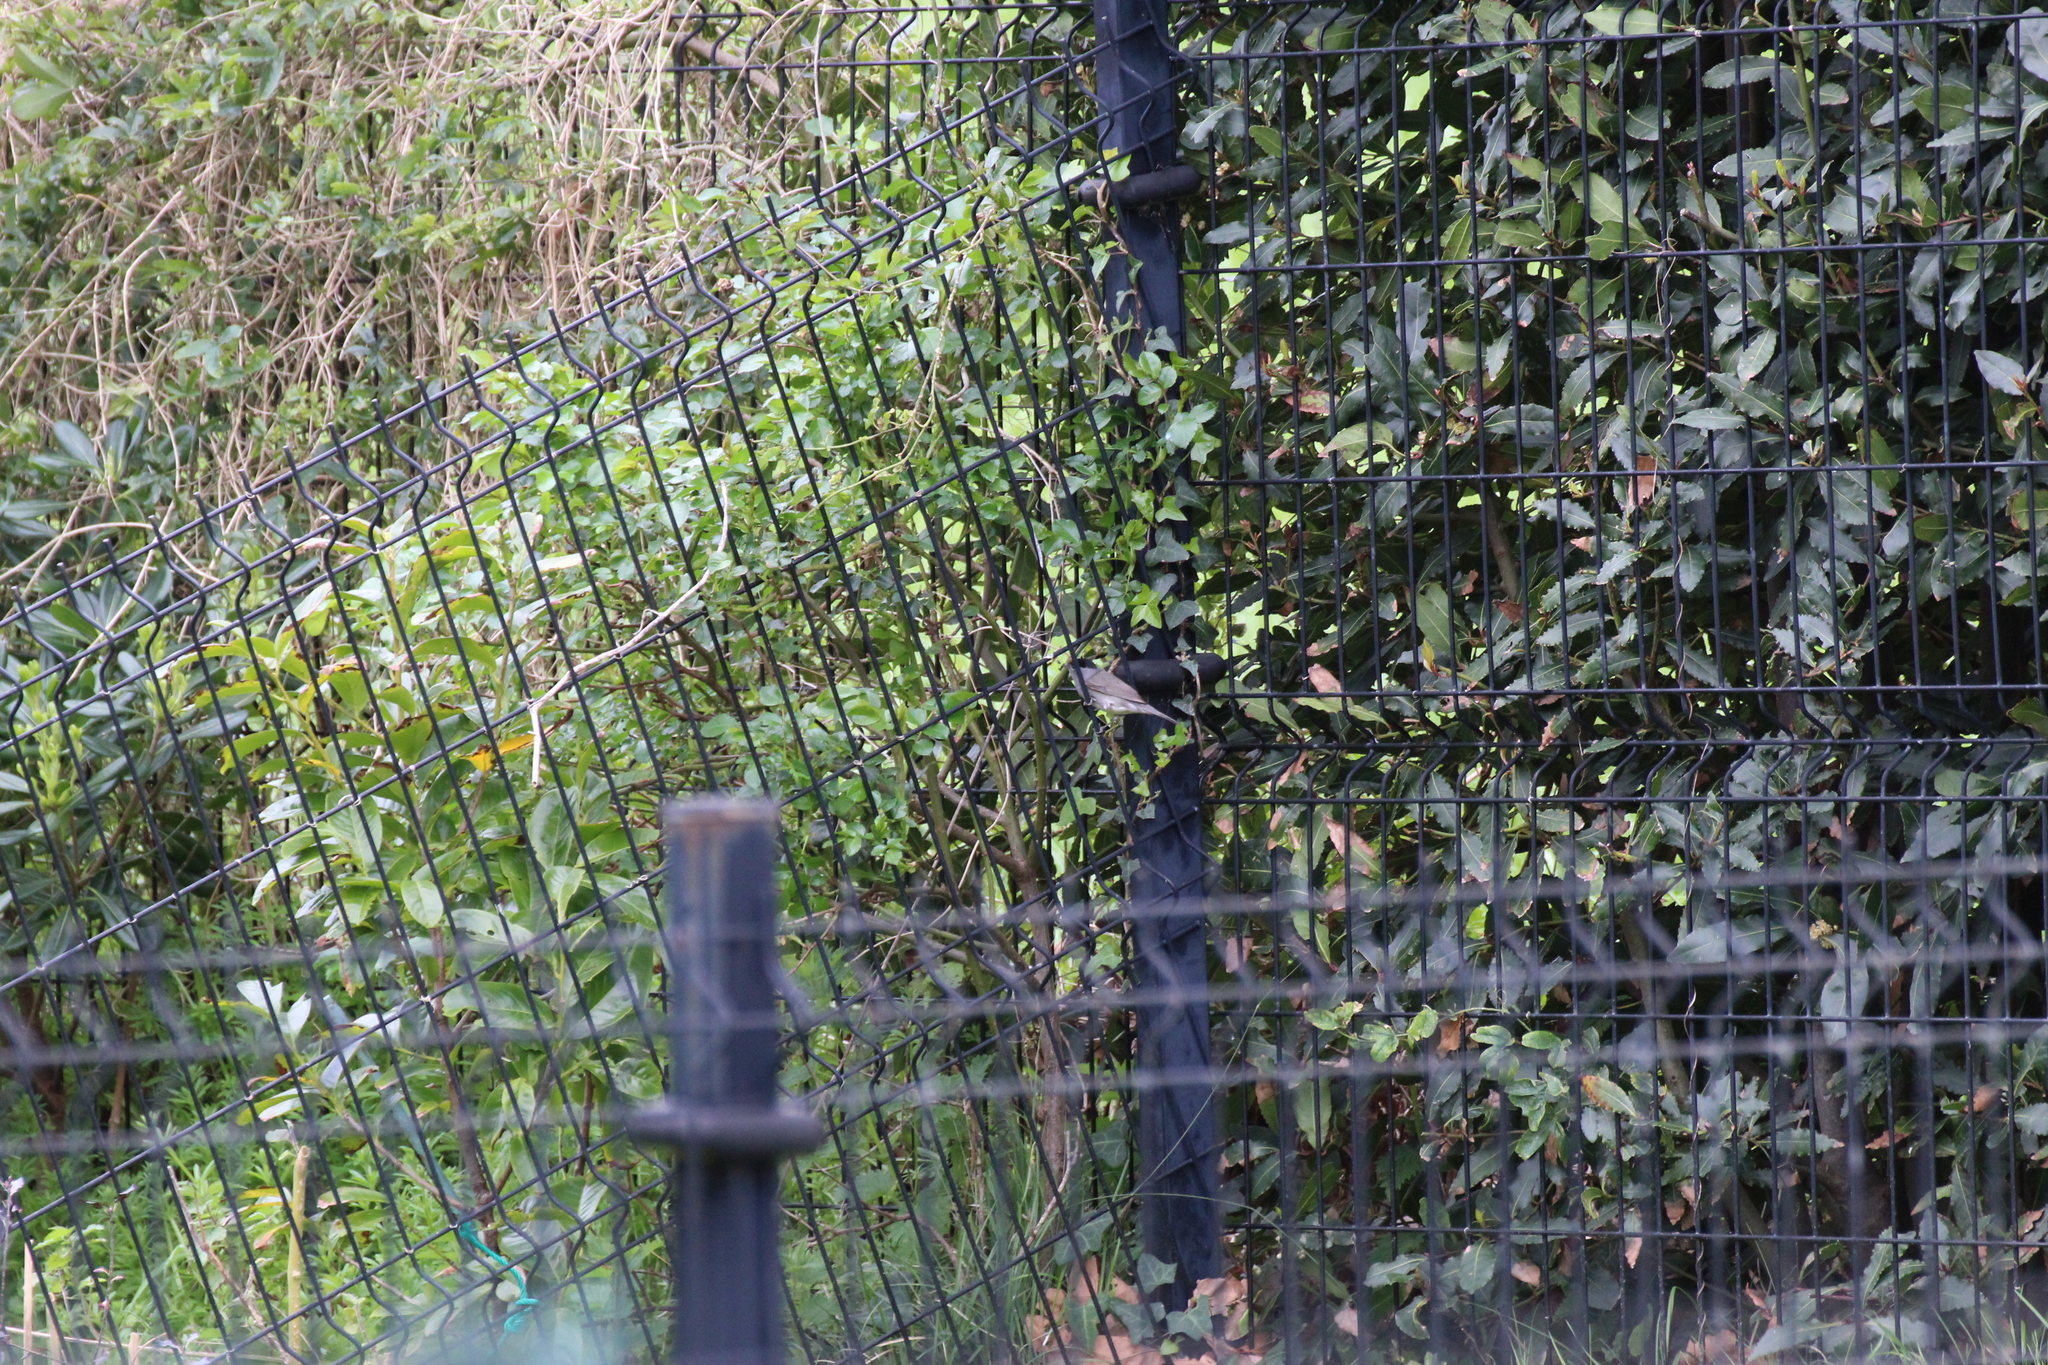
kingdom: Animalia
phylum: Chordata
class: Aves
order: Passeriformes
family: Sylviidae
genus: Sylvia
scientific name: Sylvia atricapilla
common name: Eurasian blackcap
